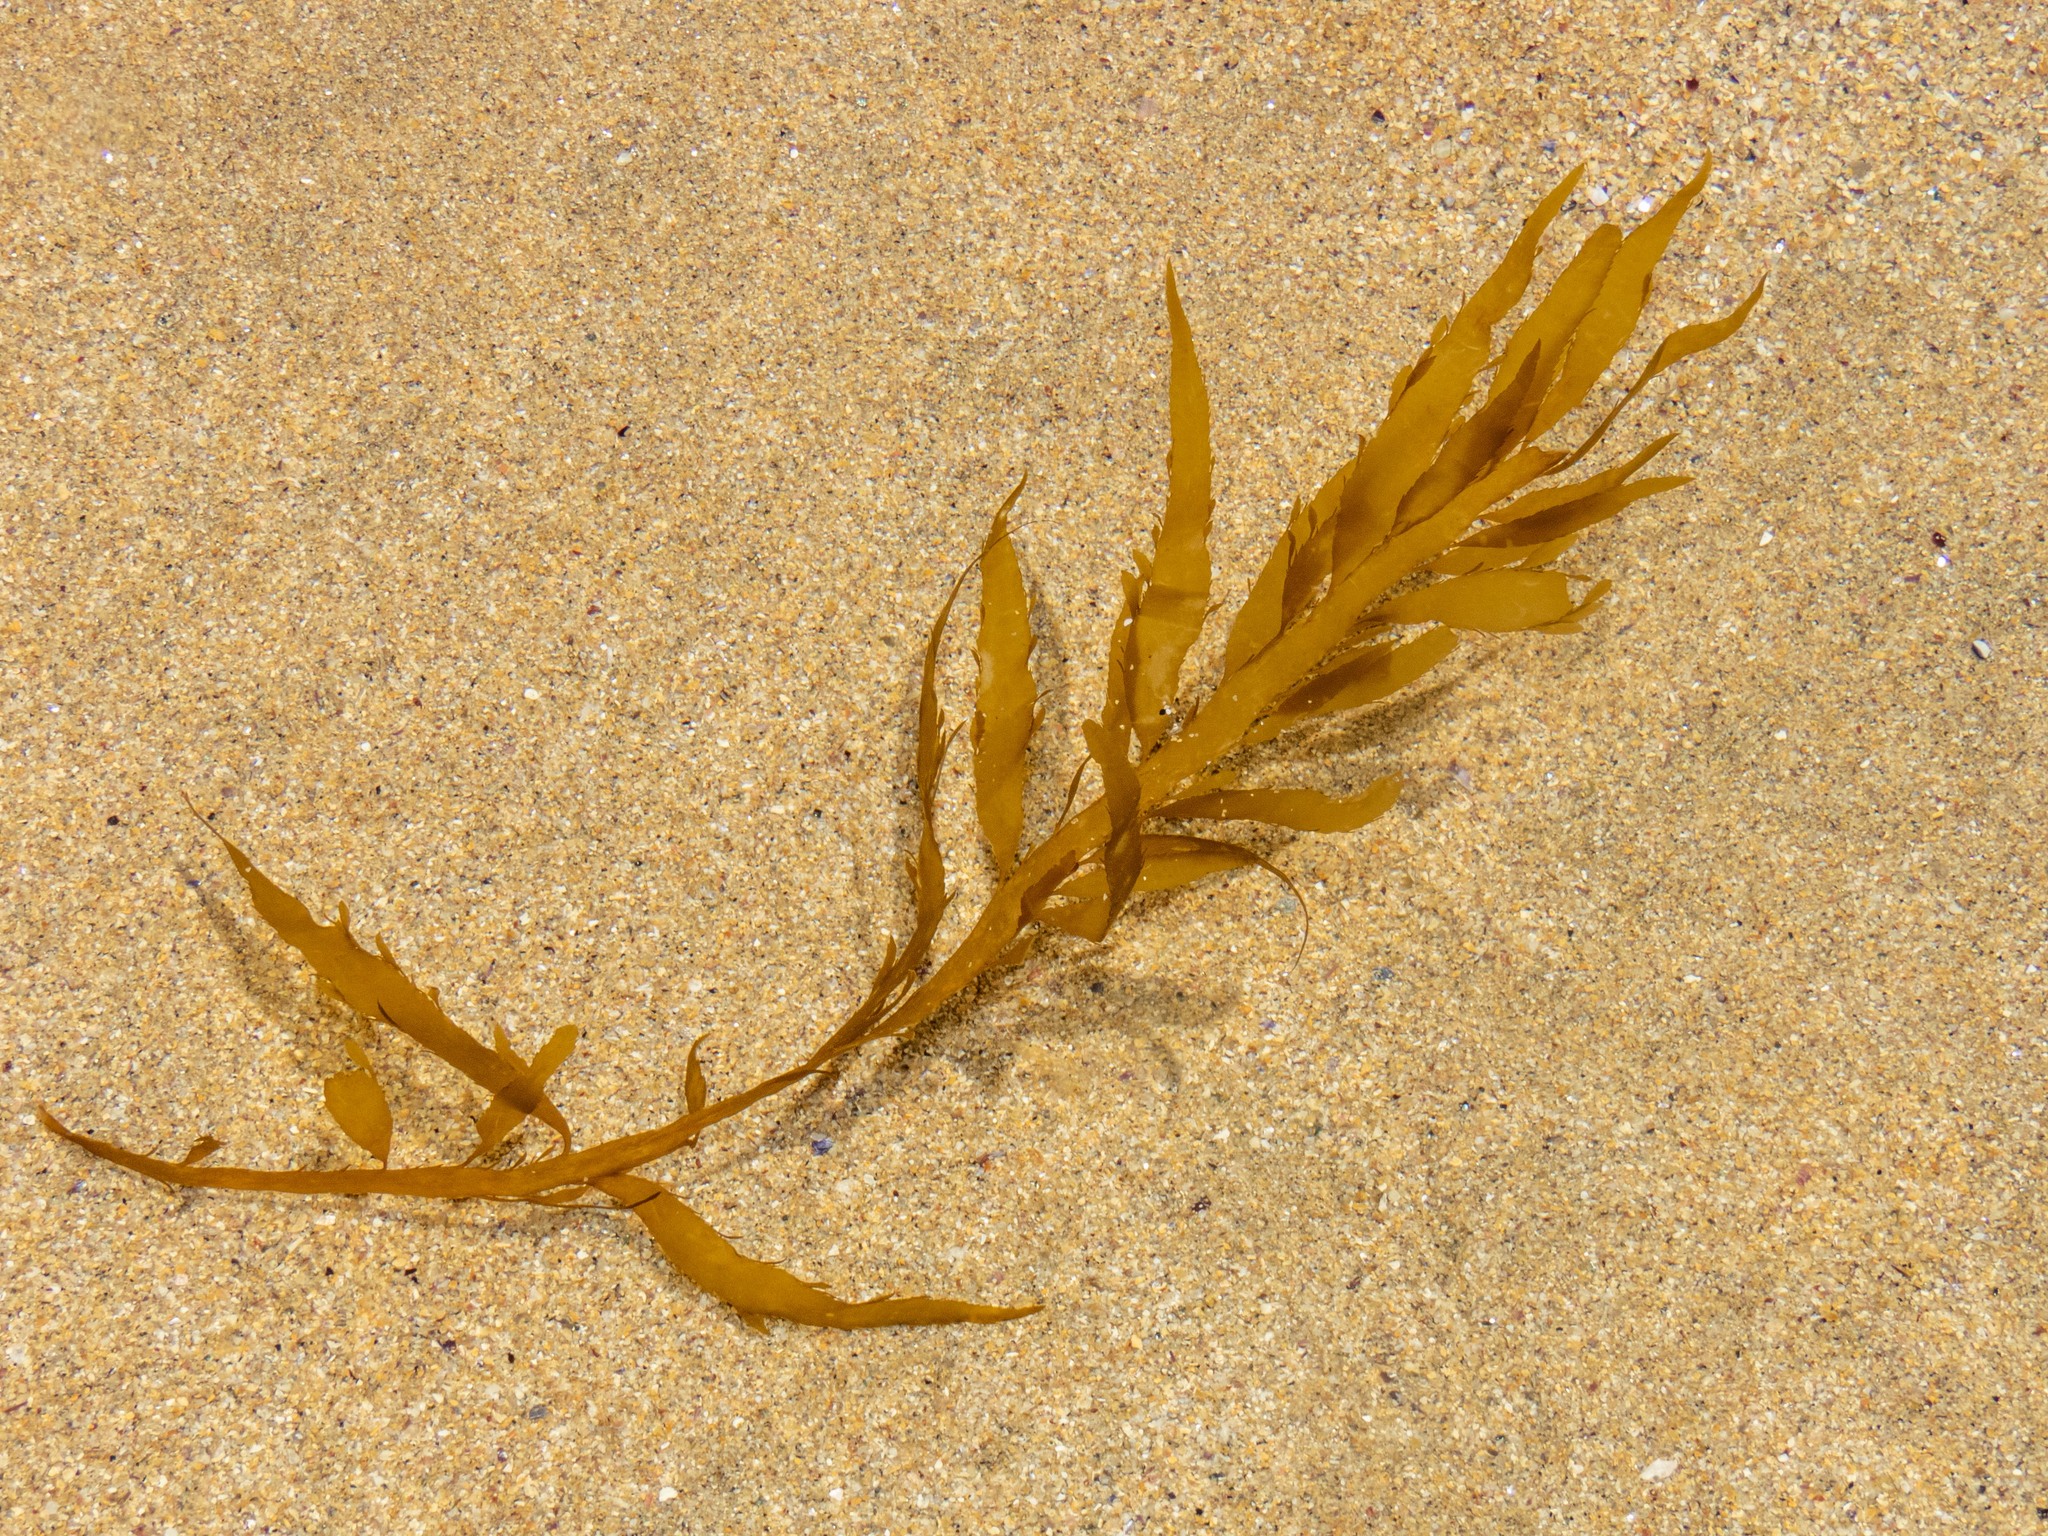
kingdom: Chromista
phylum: Ochrophyta
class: Phaeophyceae
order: Desmarestiales
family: Desmarestiaceae
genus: Desmarestia
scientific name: Desmarestia ligulata
